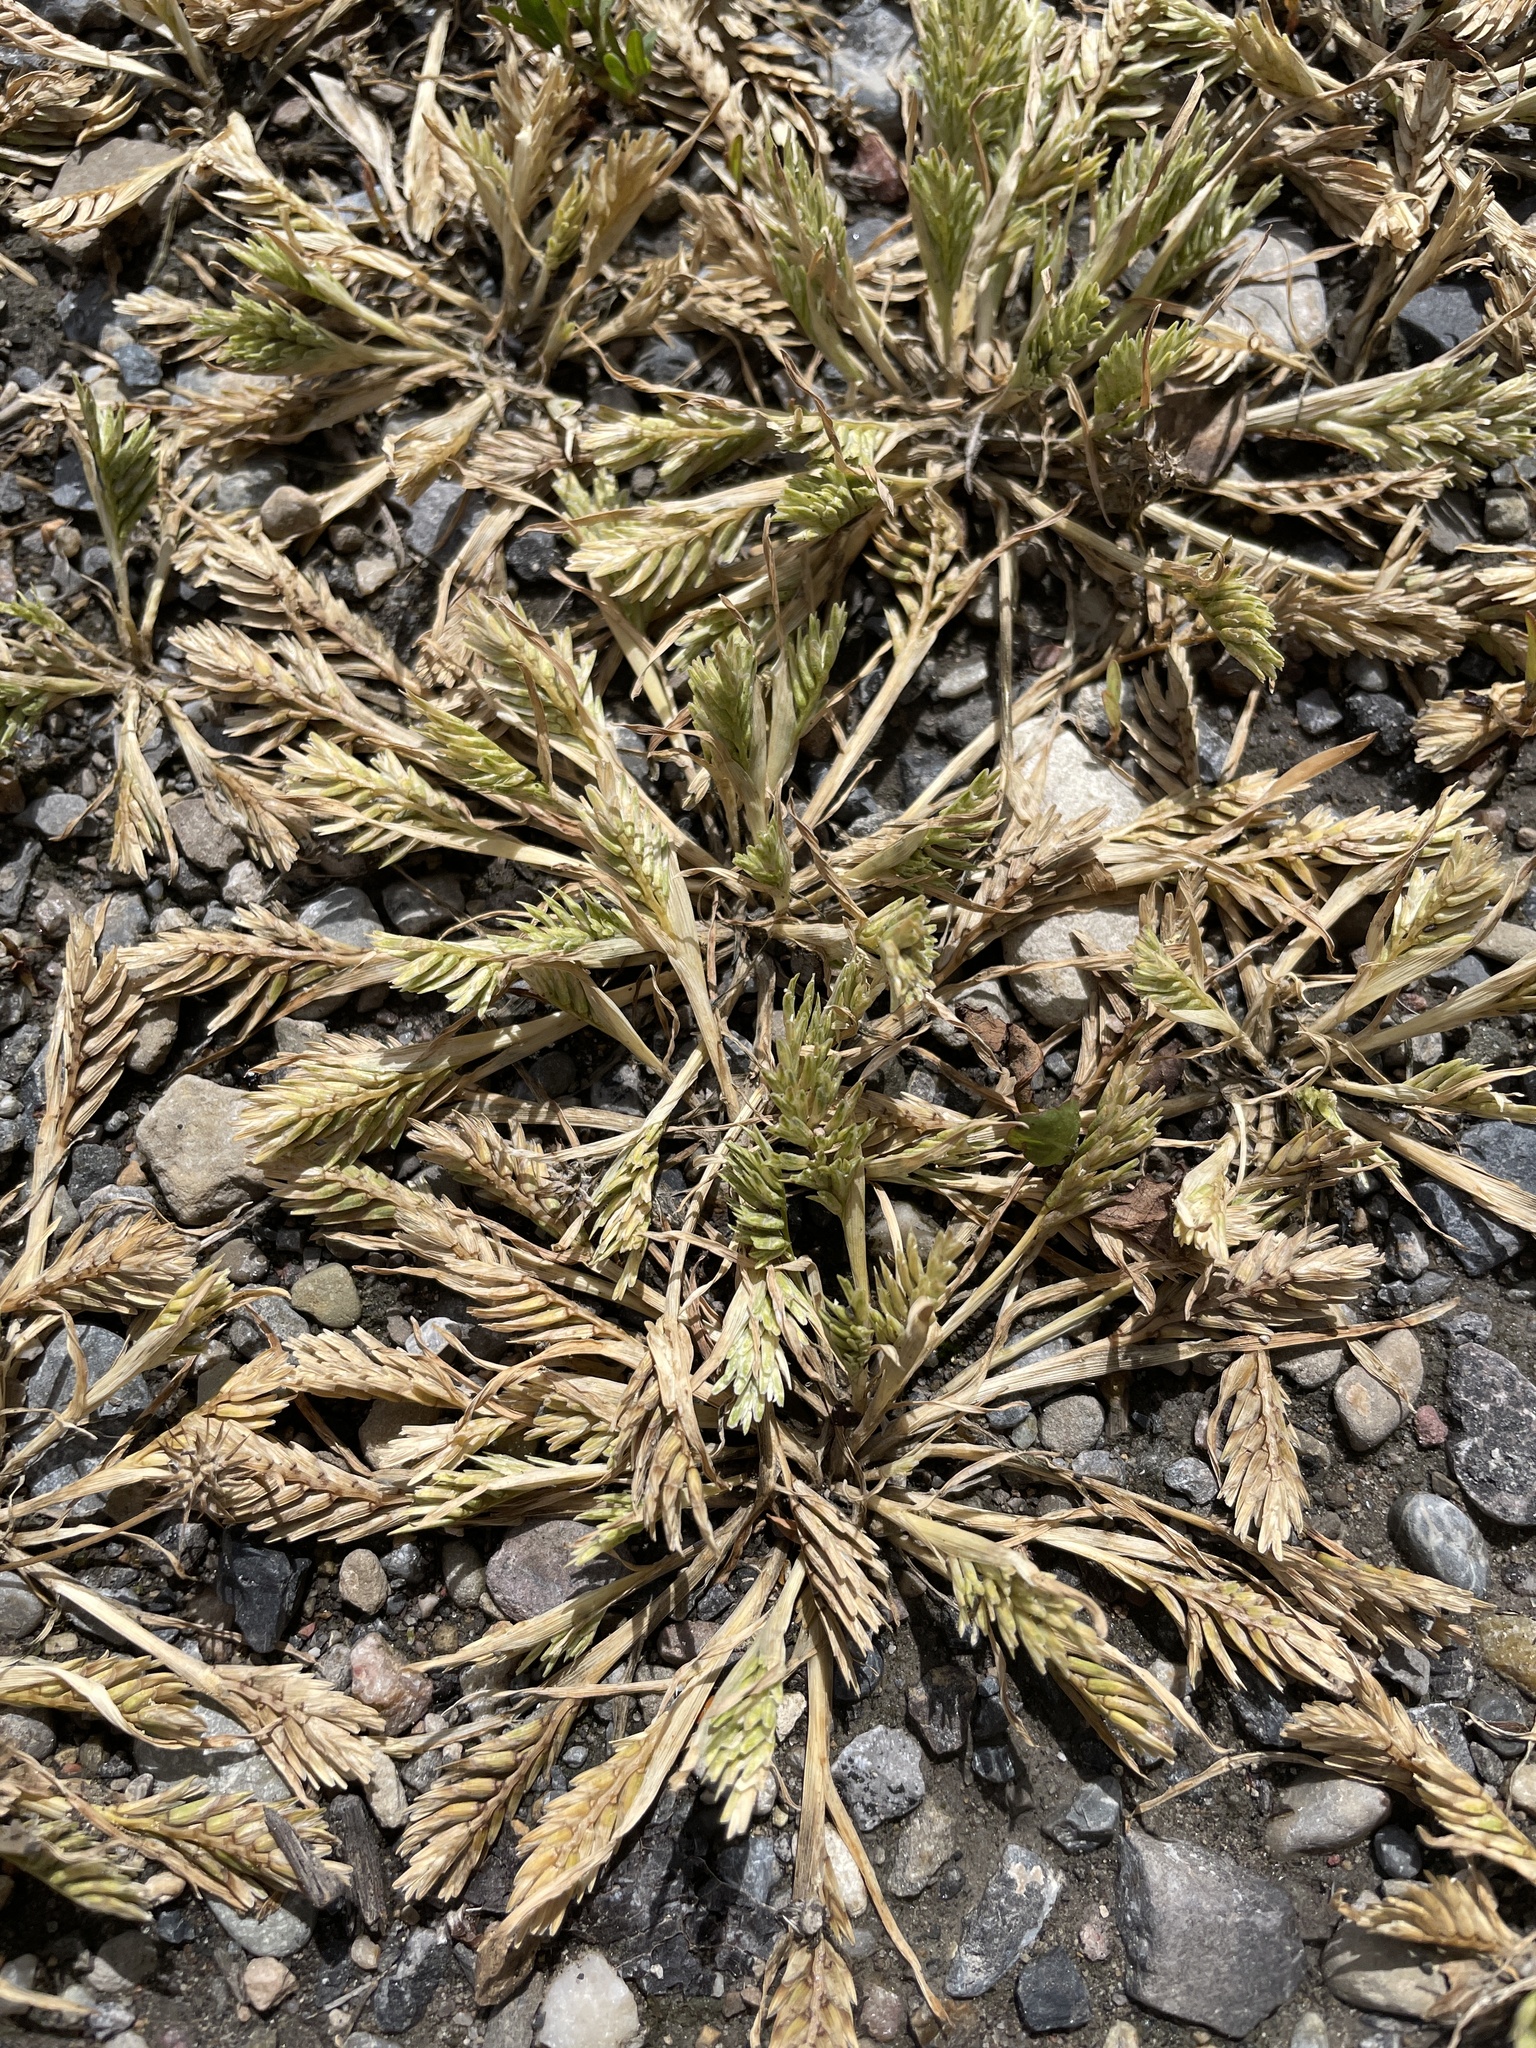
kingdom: Plantae
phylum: Tracheophyta
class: Liliopsida
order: Poales
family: Poaceae
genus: Sclerochloa
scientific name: Sclerochloa dura
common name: Common hardgrass
